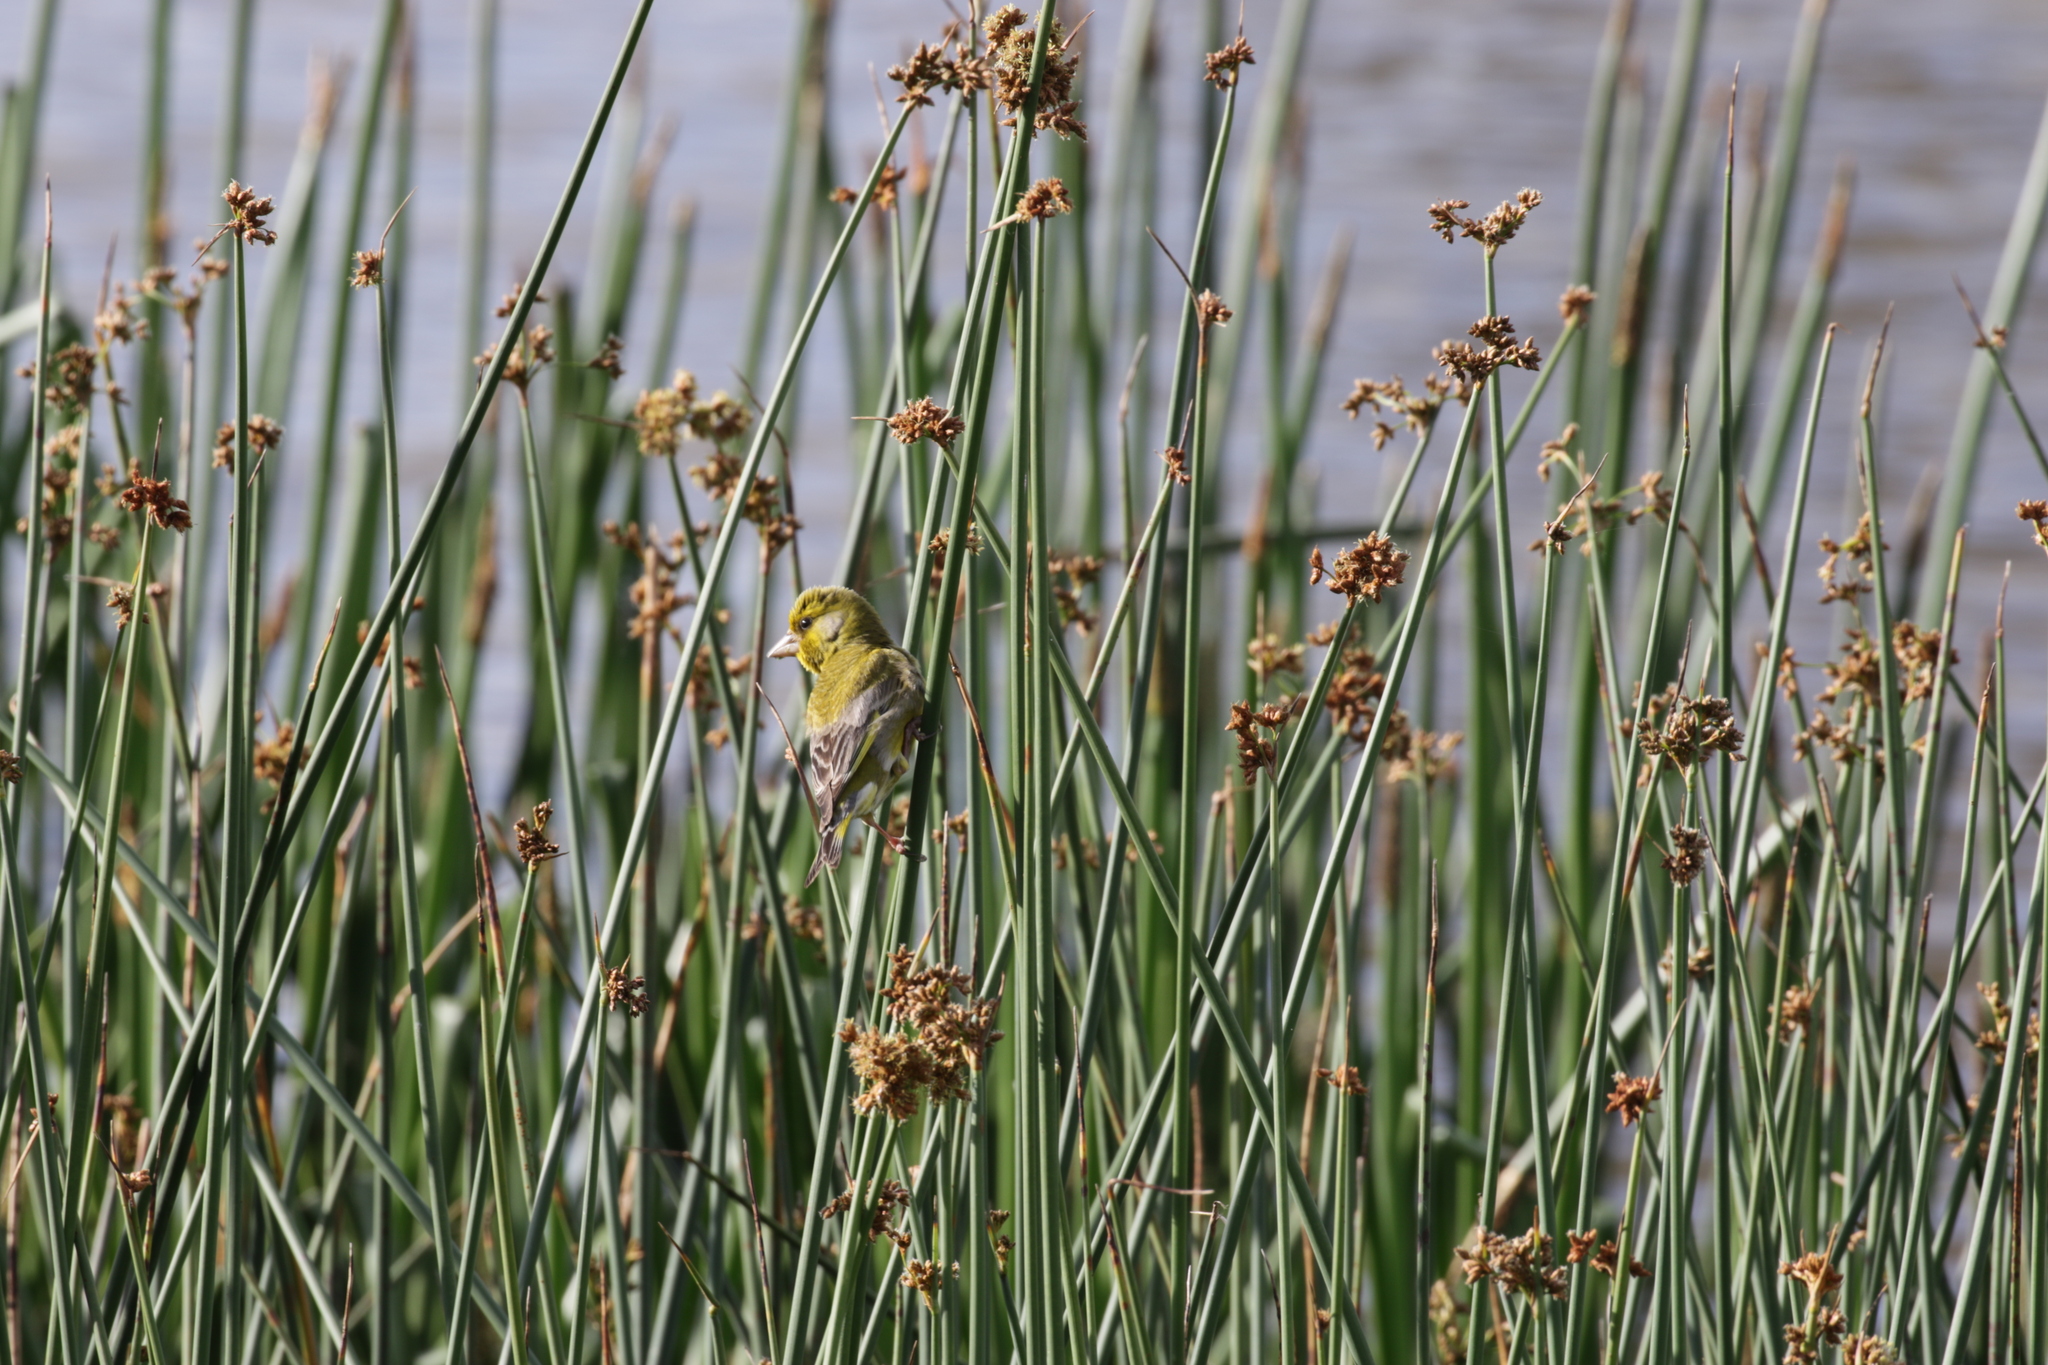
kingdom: Plantae
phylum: Tracheophyta
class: Liliopsida
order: Poales
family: Poaceae
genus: Chloris
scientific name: Chloris chloris
